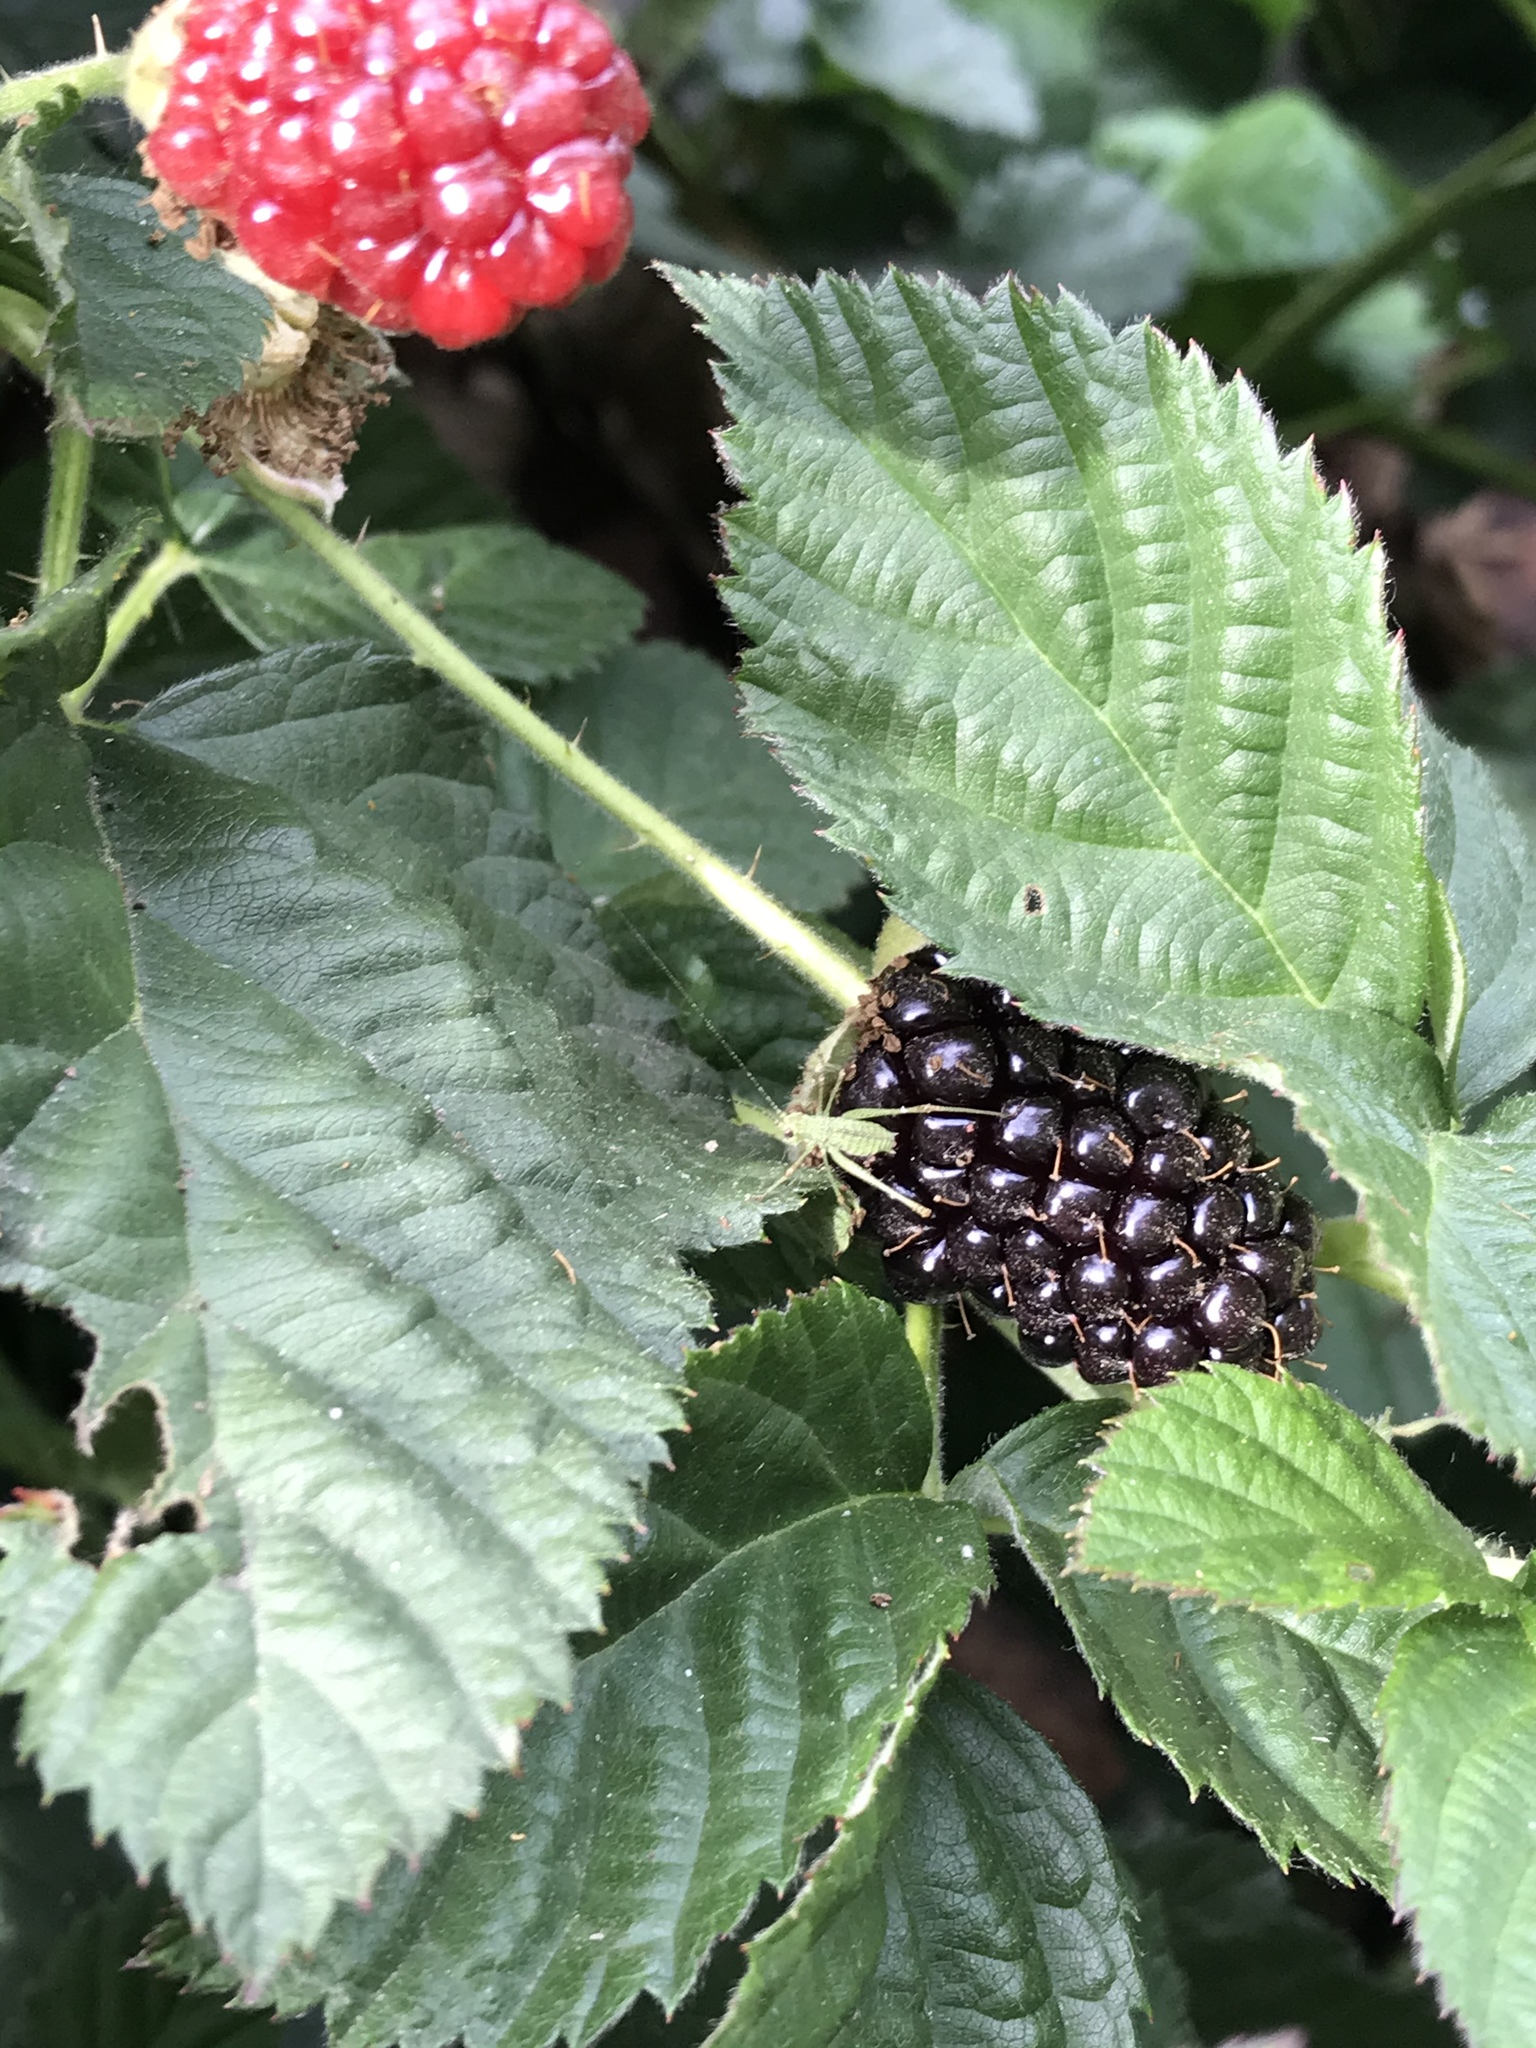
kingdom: Animalia
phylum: Arthropoda
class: Insecta
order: Orthoptera
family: Tettigoniidae
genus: Phaneroptera
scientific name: Phaneroptera nana
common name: Southern sickle bush-cricket
